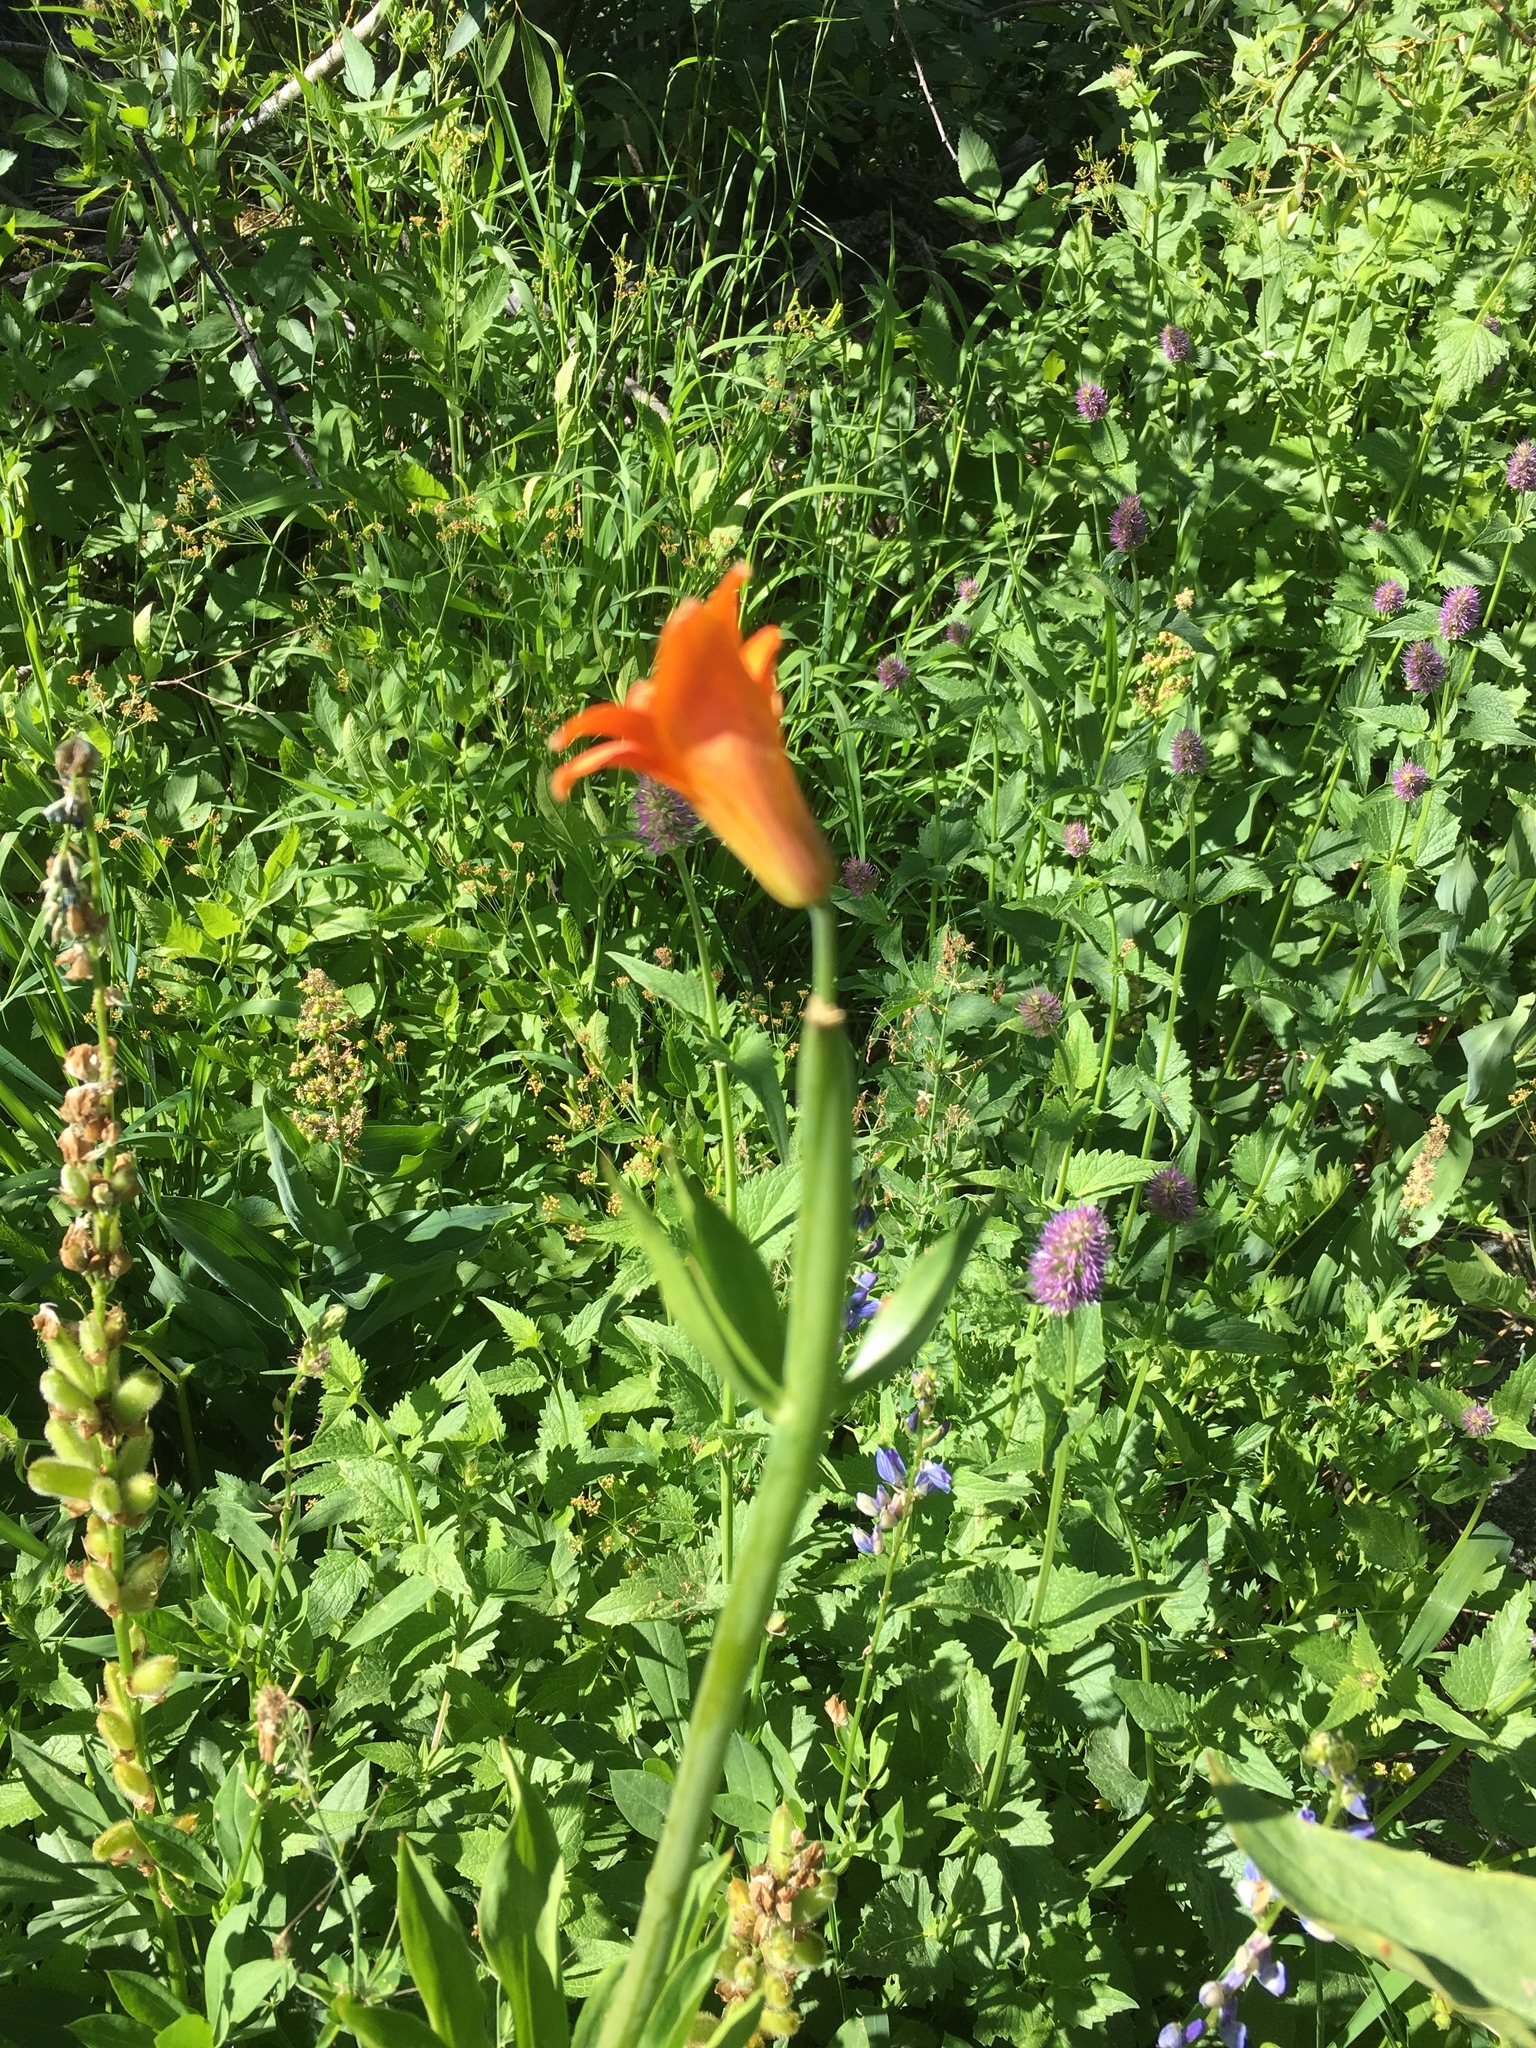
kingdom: Plantae
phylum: Tracheophyta
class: Liliopsida
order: Liliales
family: Liliaceae
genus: Lilium
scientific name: Lilium parvum
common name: Alpine lily
